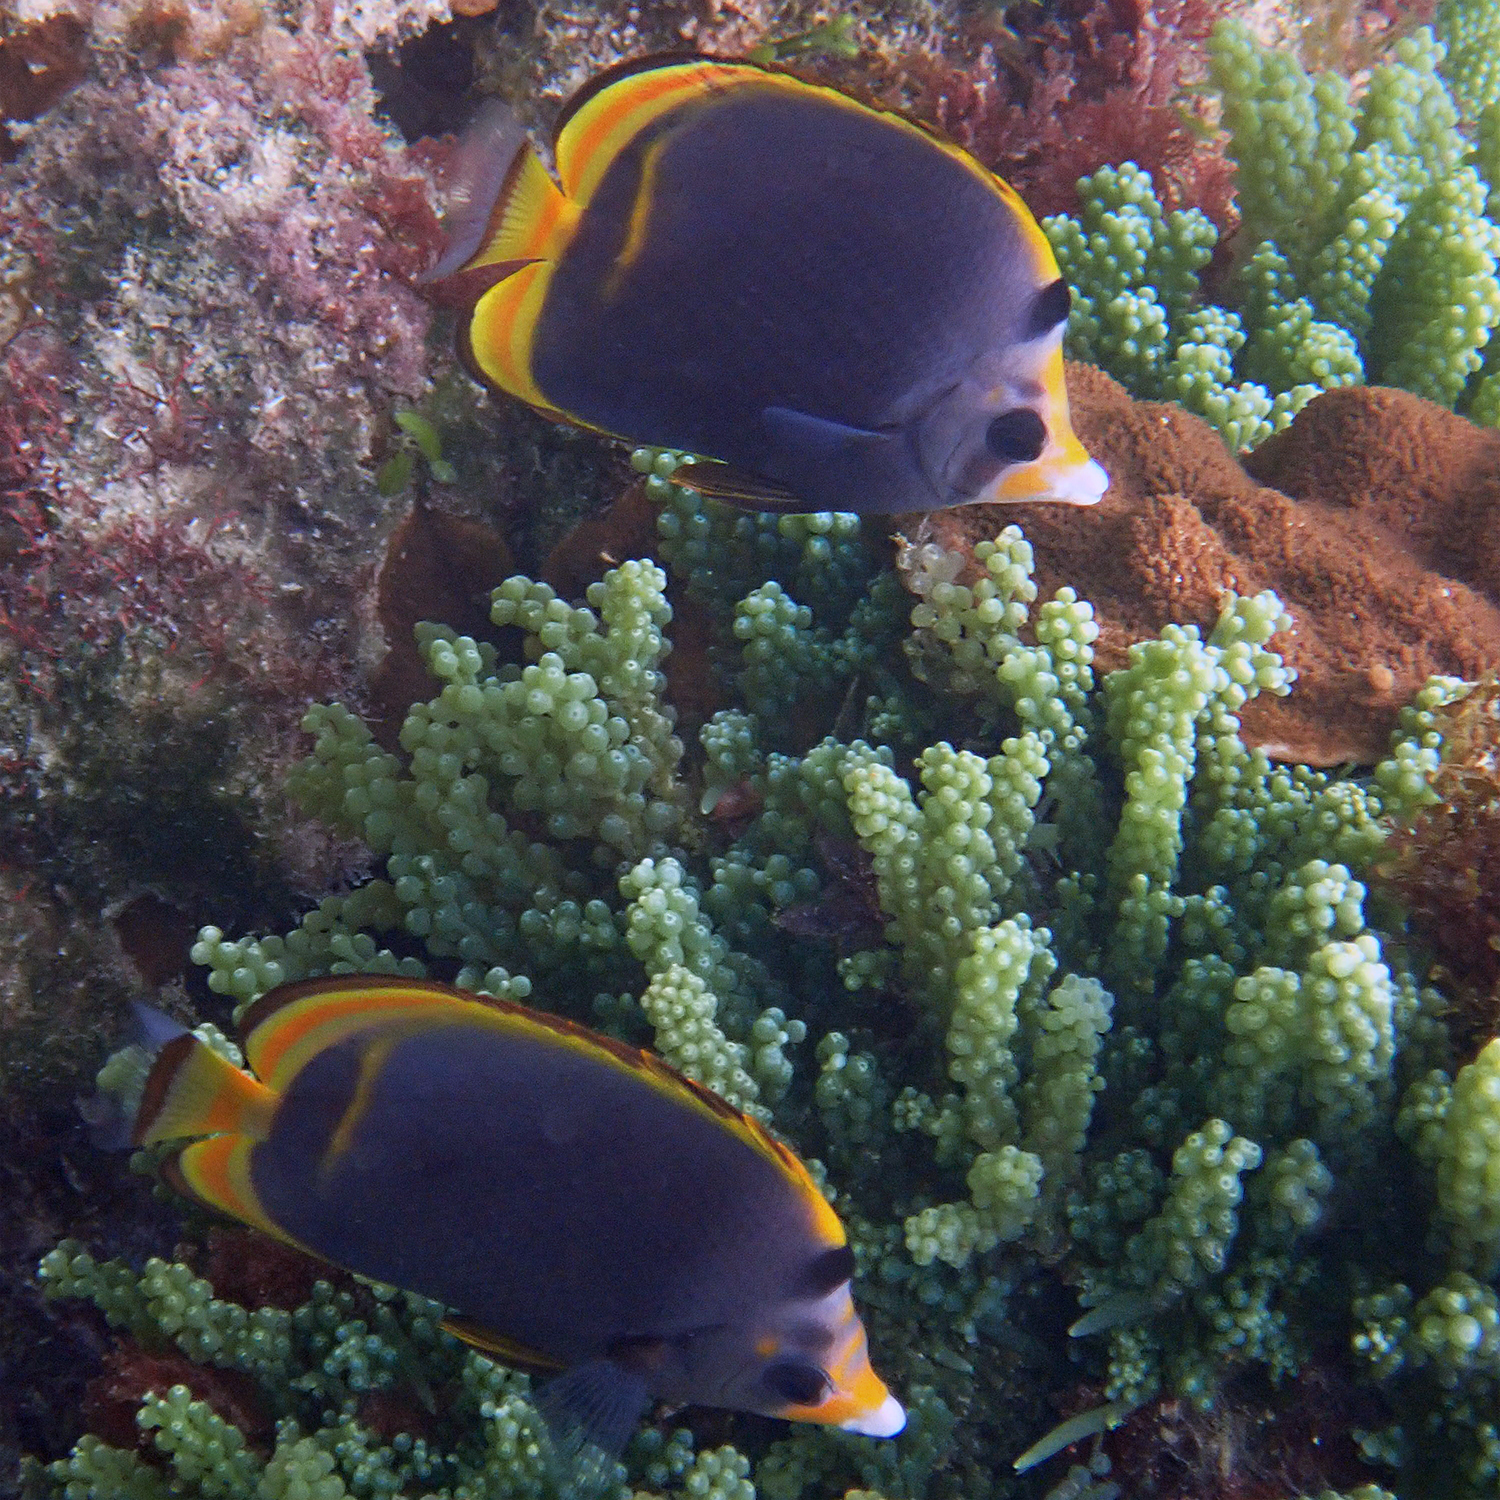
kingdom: Animalia
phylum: Chordata
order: Perciformes
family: Chaetodontidae
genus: Chaetodon
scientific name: Chaetodon flavirostris
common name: Black butterflyfish
